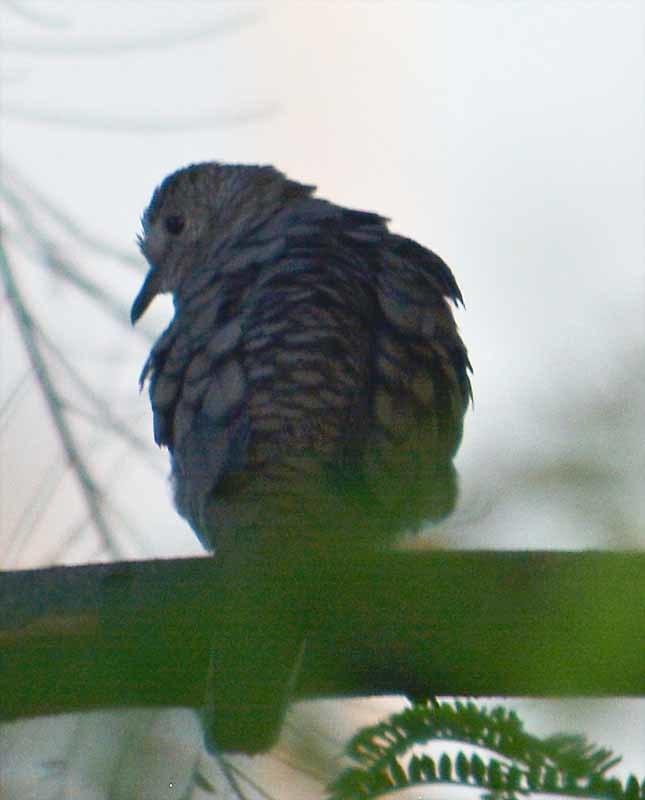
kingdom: Animalia
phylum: Chordata
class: Aves
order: Columbiformes
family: Columbidae
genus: Columbina
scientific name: Columbina inca
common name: Inca dove
